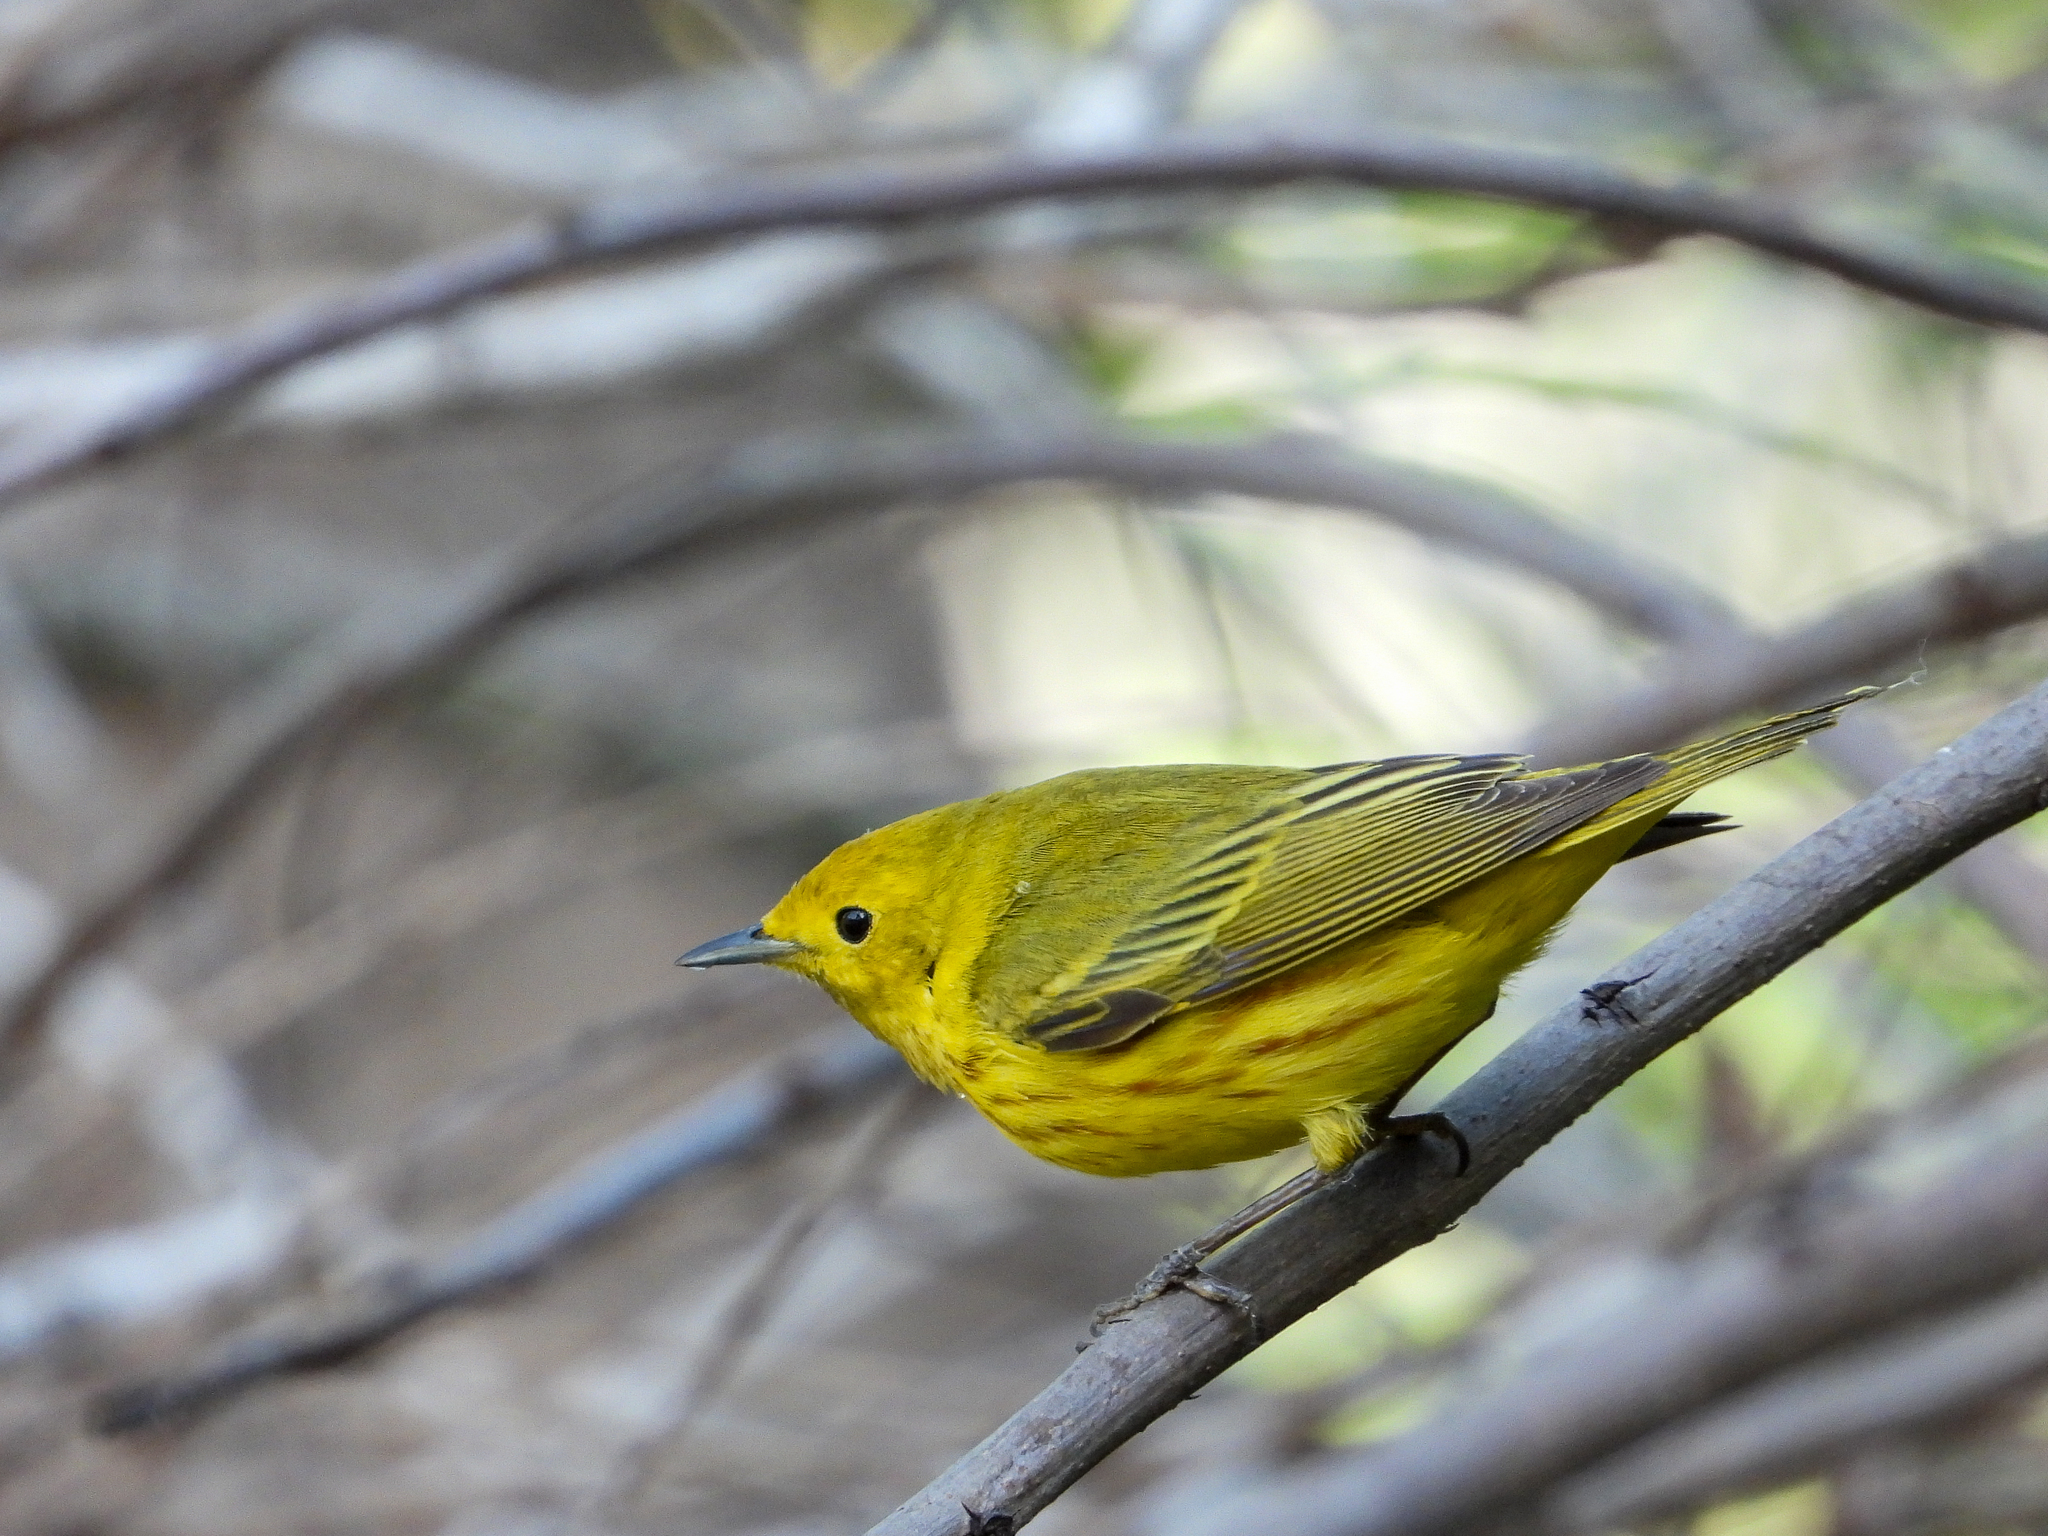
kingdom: Animalia
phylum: Chordata
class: Aves
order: Passeriformes
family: Parulidae
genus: Setophaga
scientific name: Setophaga petechia
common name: Yellow warbler
